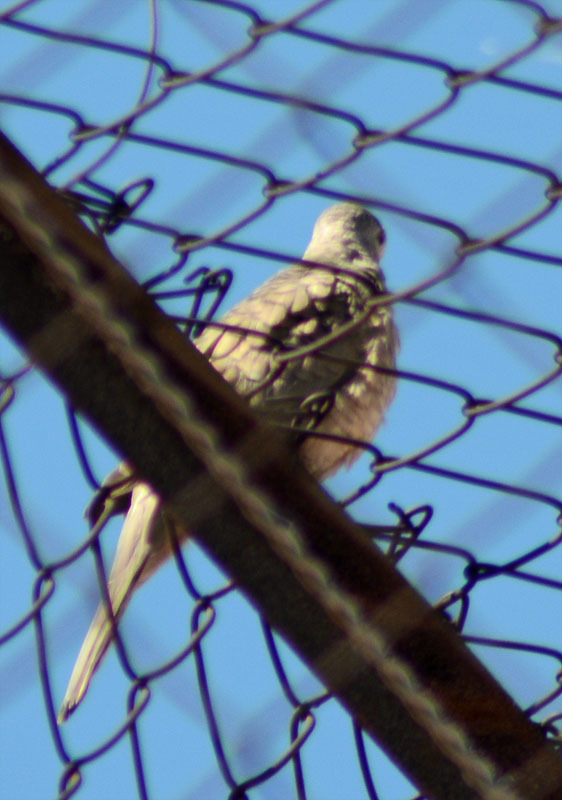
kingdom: Animalia
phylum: Chordata
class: Aves
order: Columbiformes
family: Columbidae
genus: Columbina
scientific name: Columbina inca
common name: Inca dove
